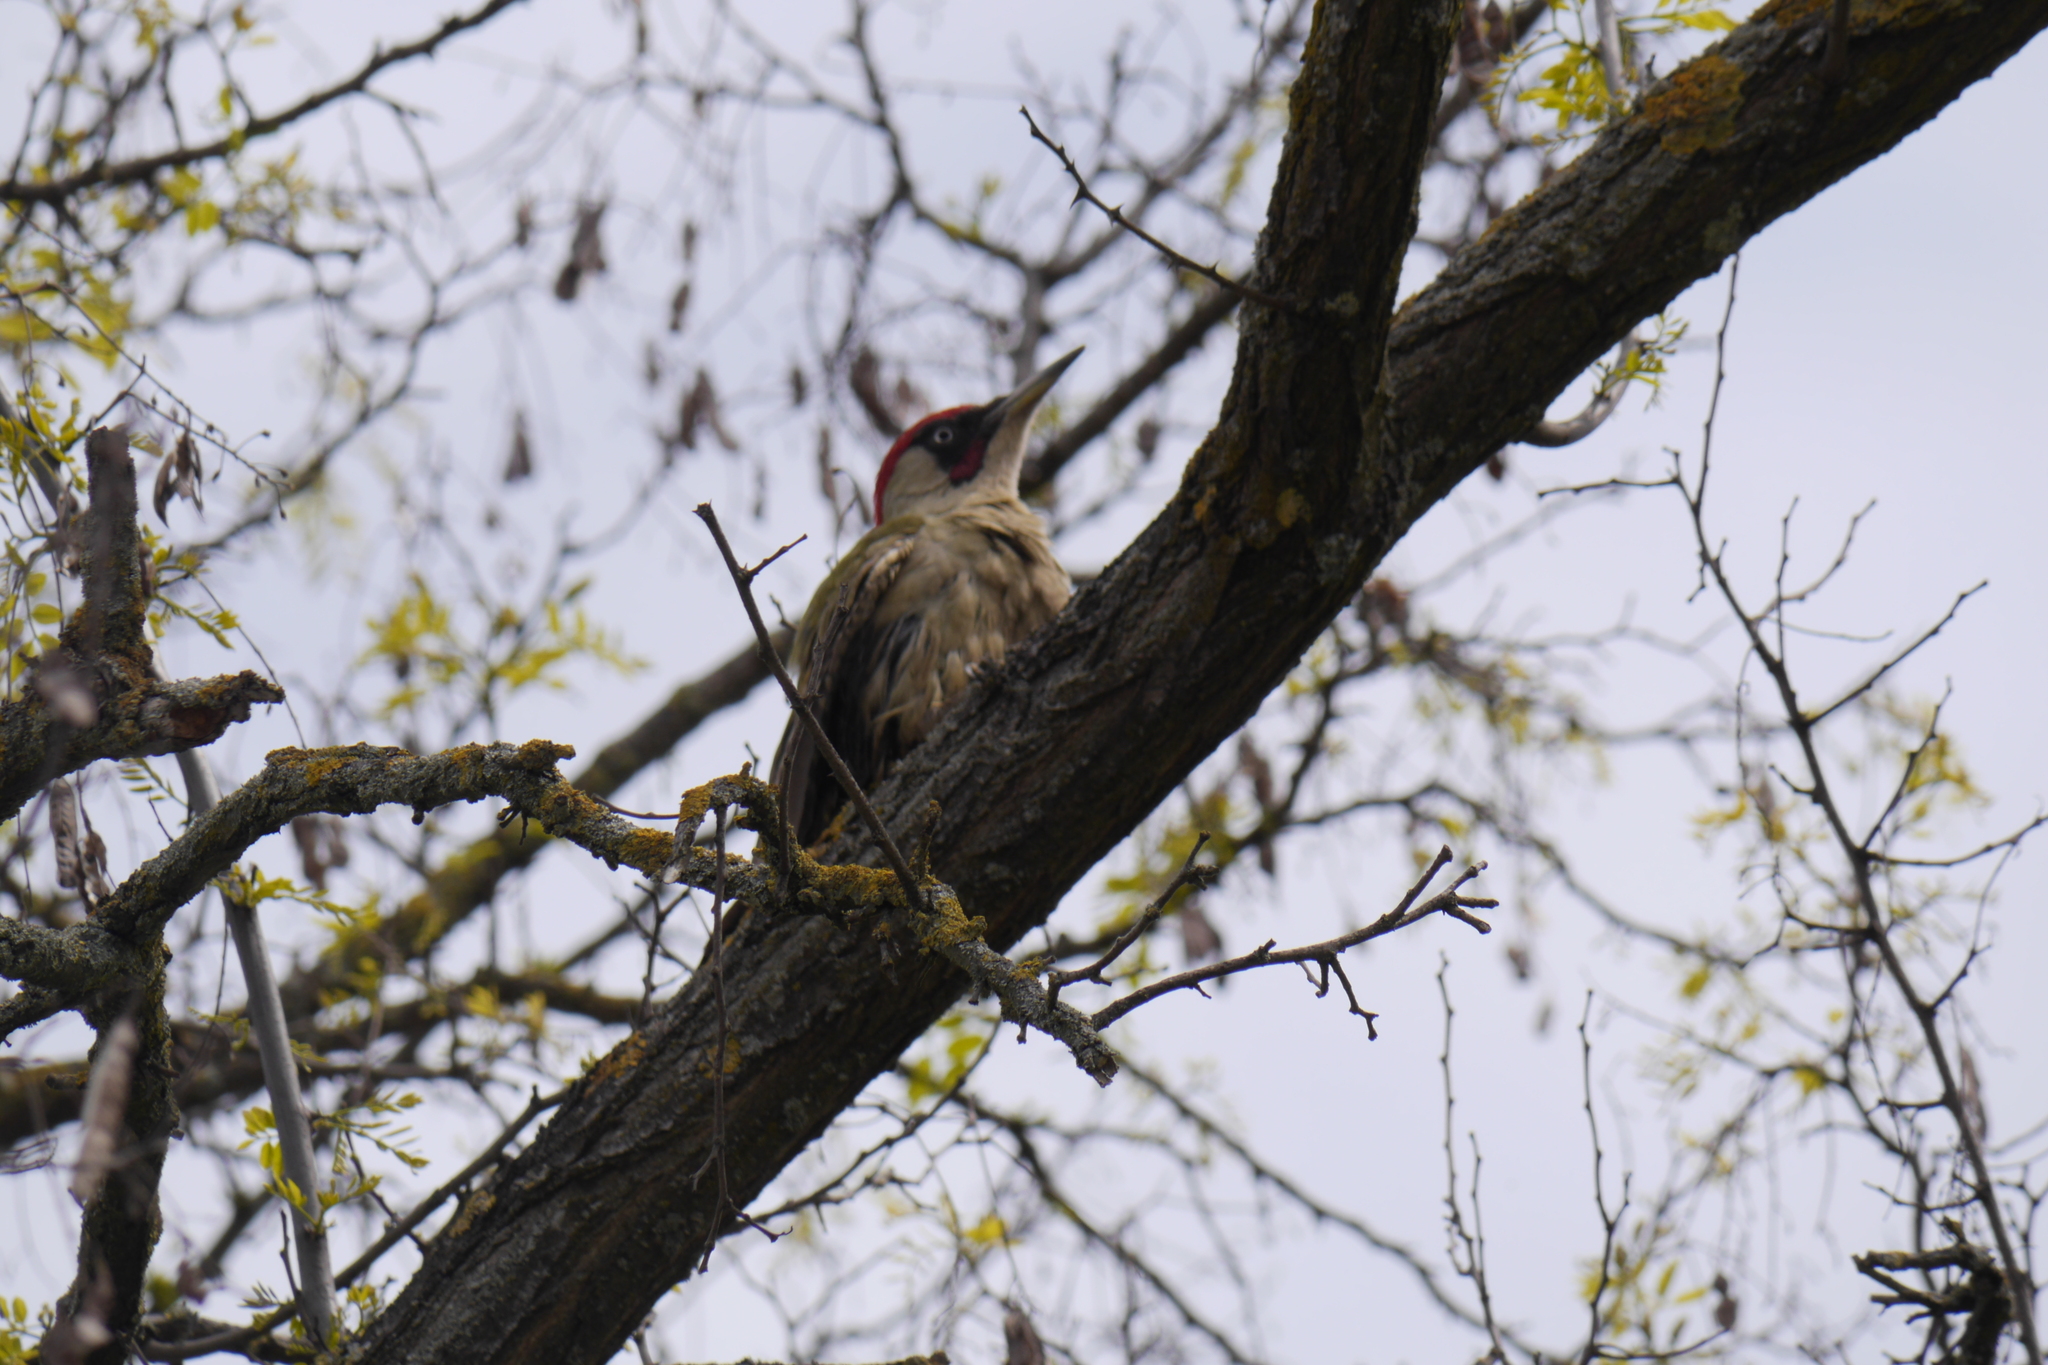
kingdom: Animalia
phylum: Chordata
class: Aves
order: Piciformes
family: Picidae
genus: Picus
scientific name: Picus viridis
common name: European green woodpecker
